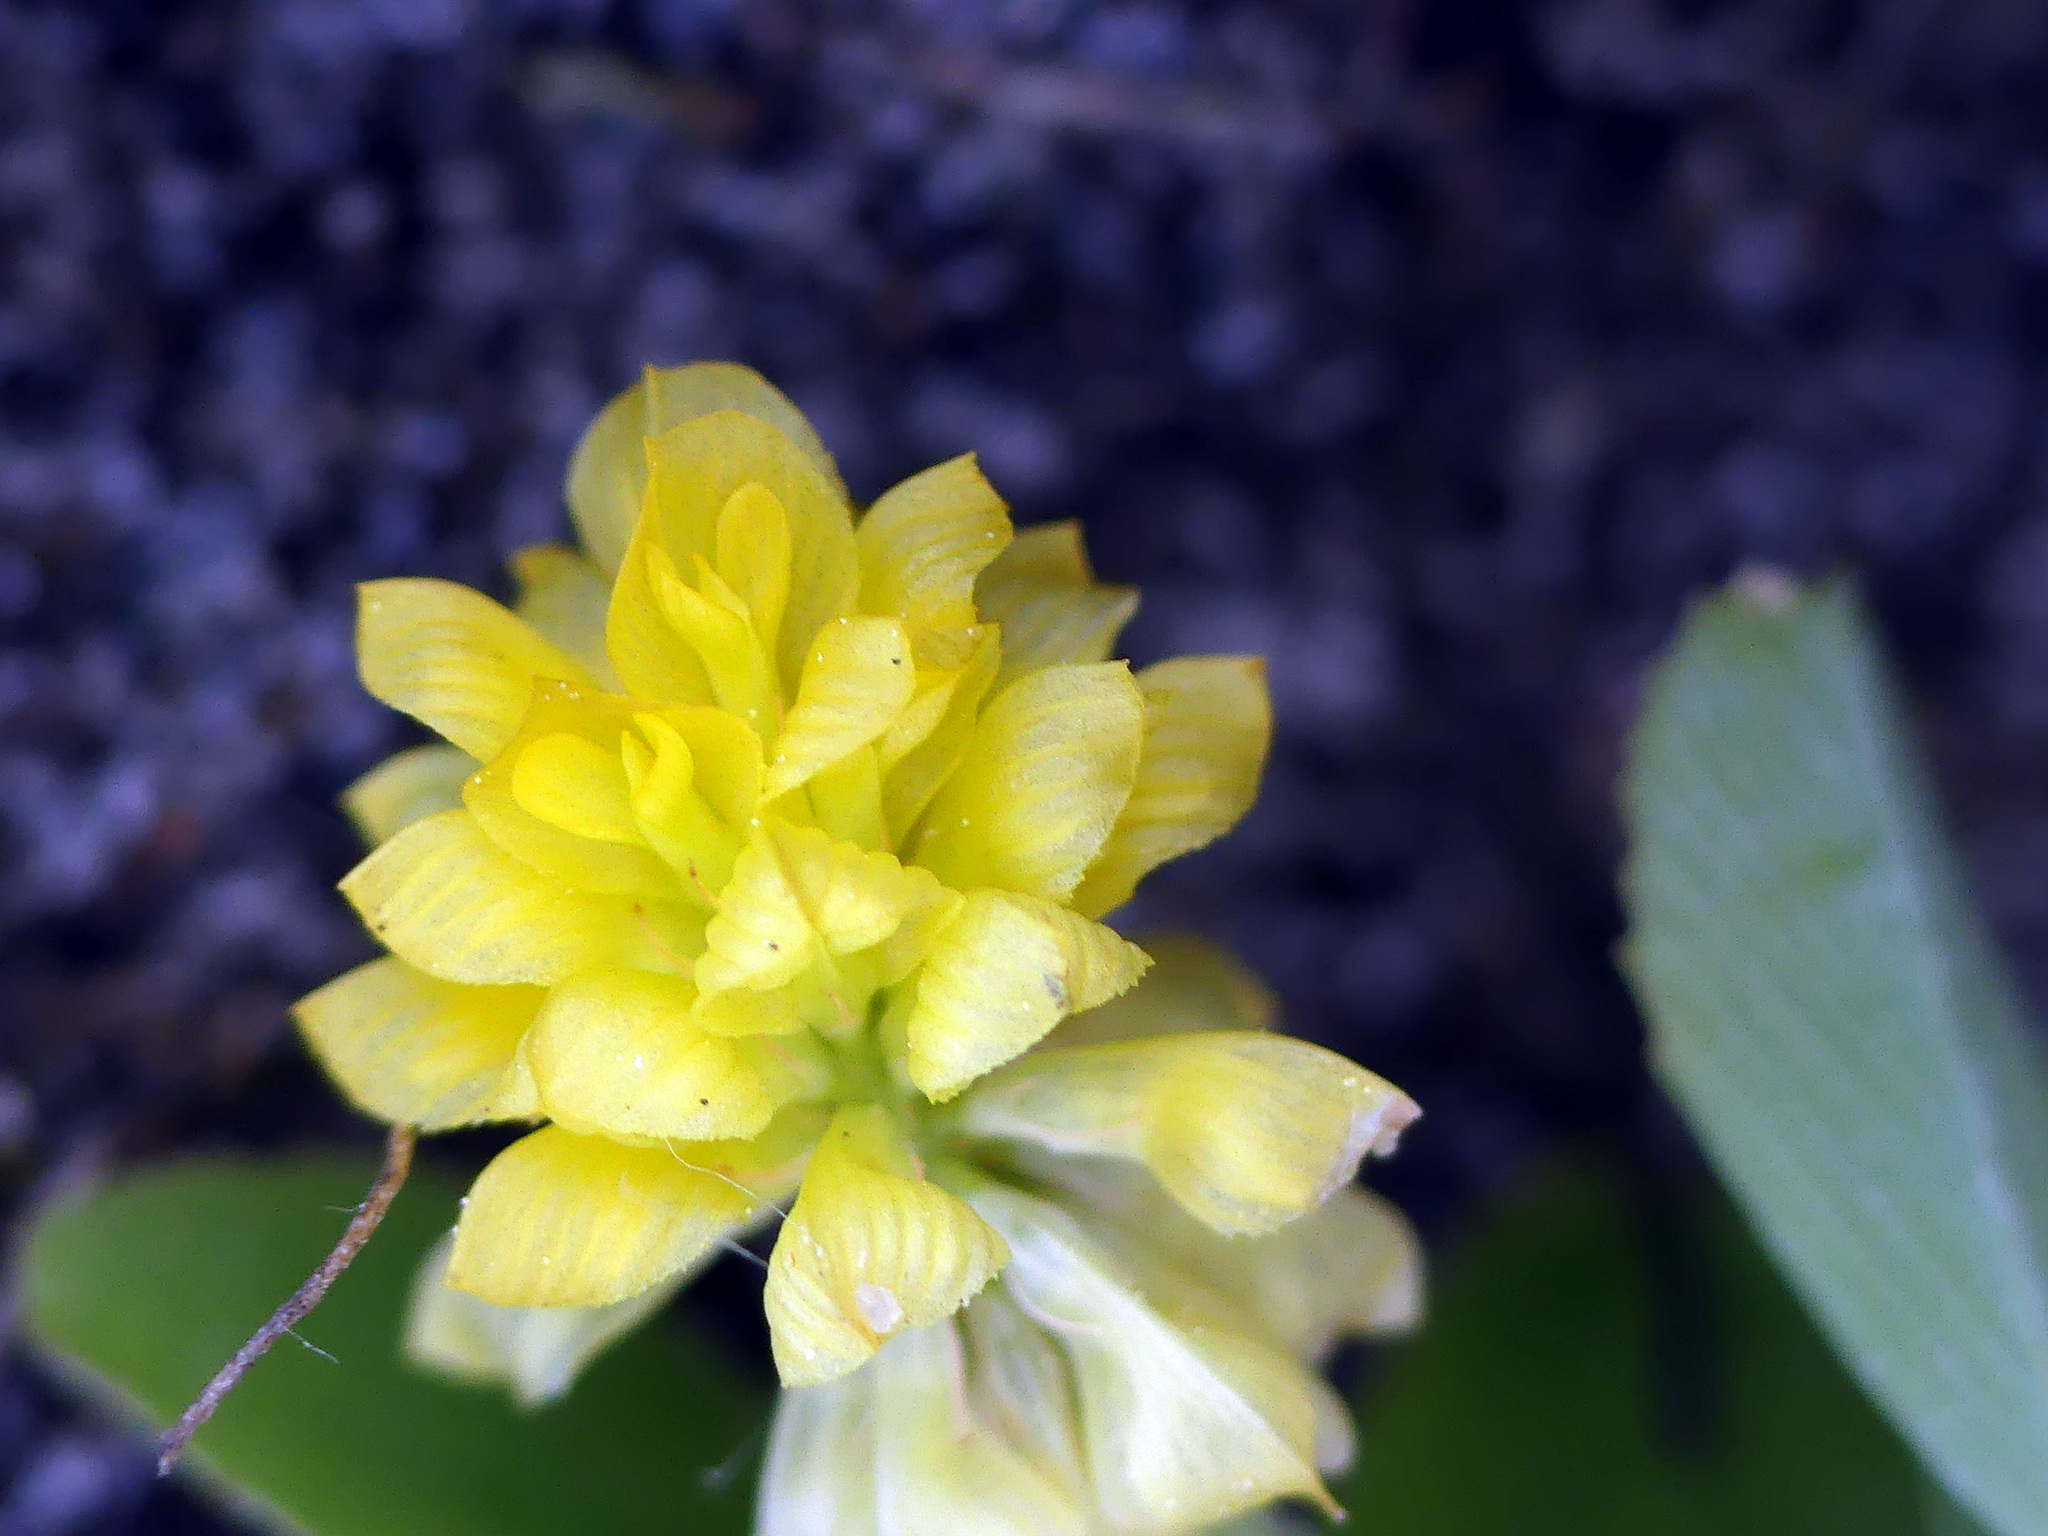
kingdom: Plantae
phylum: Tracheophyta
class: Magnoliopsida
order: Fabales
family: Fabaceae
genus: Trifolium
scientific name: Trifolium campestre
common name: Field clover
